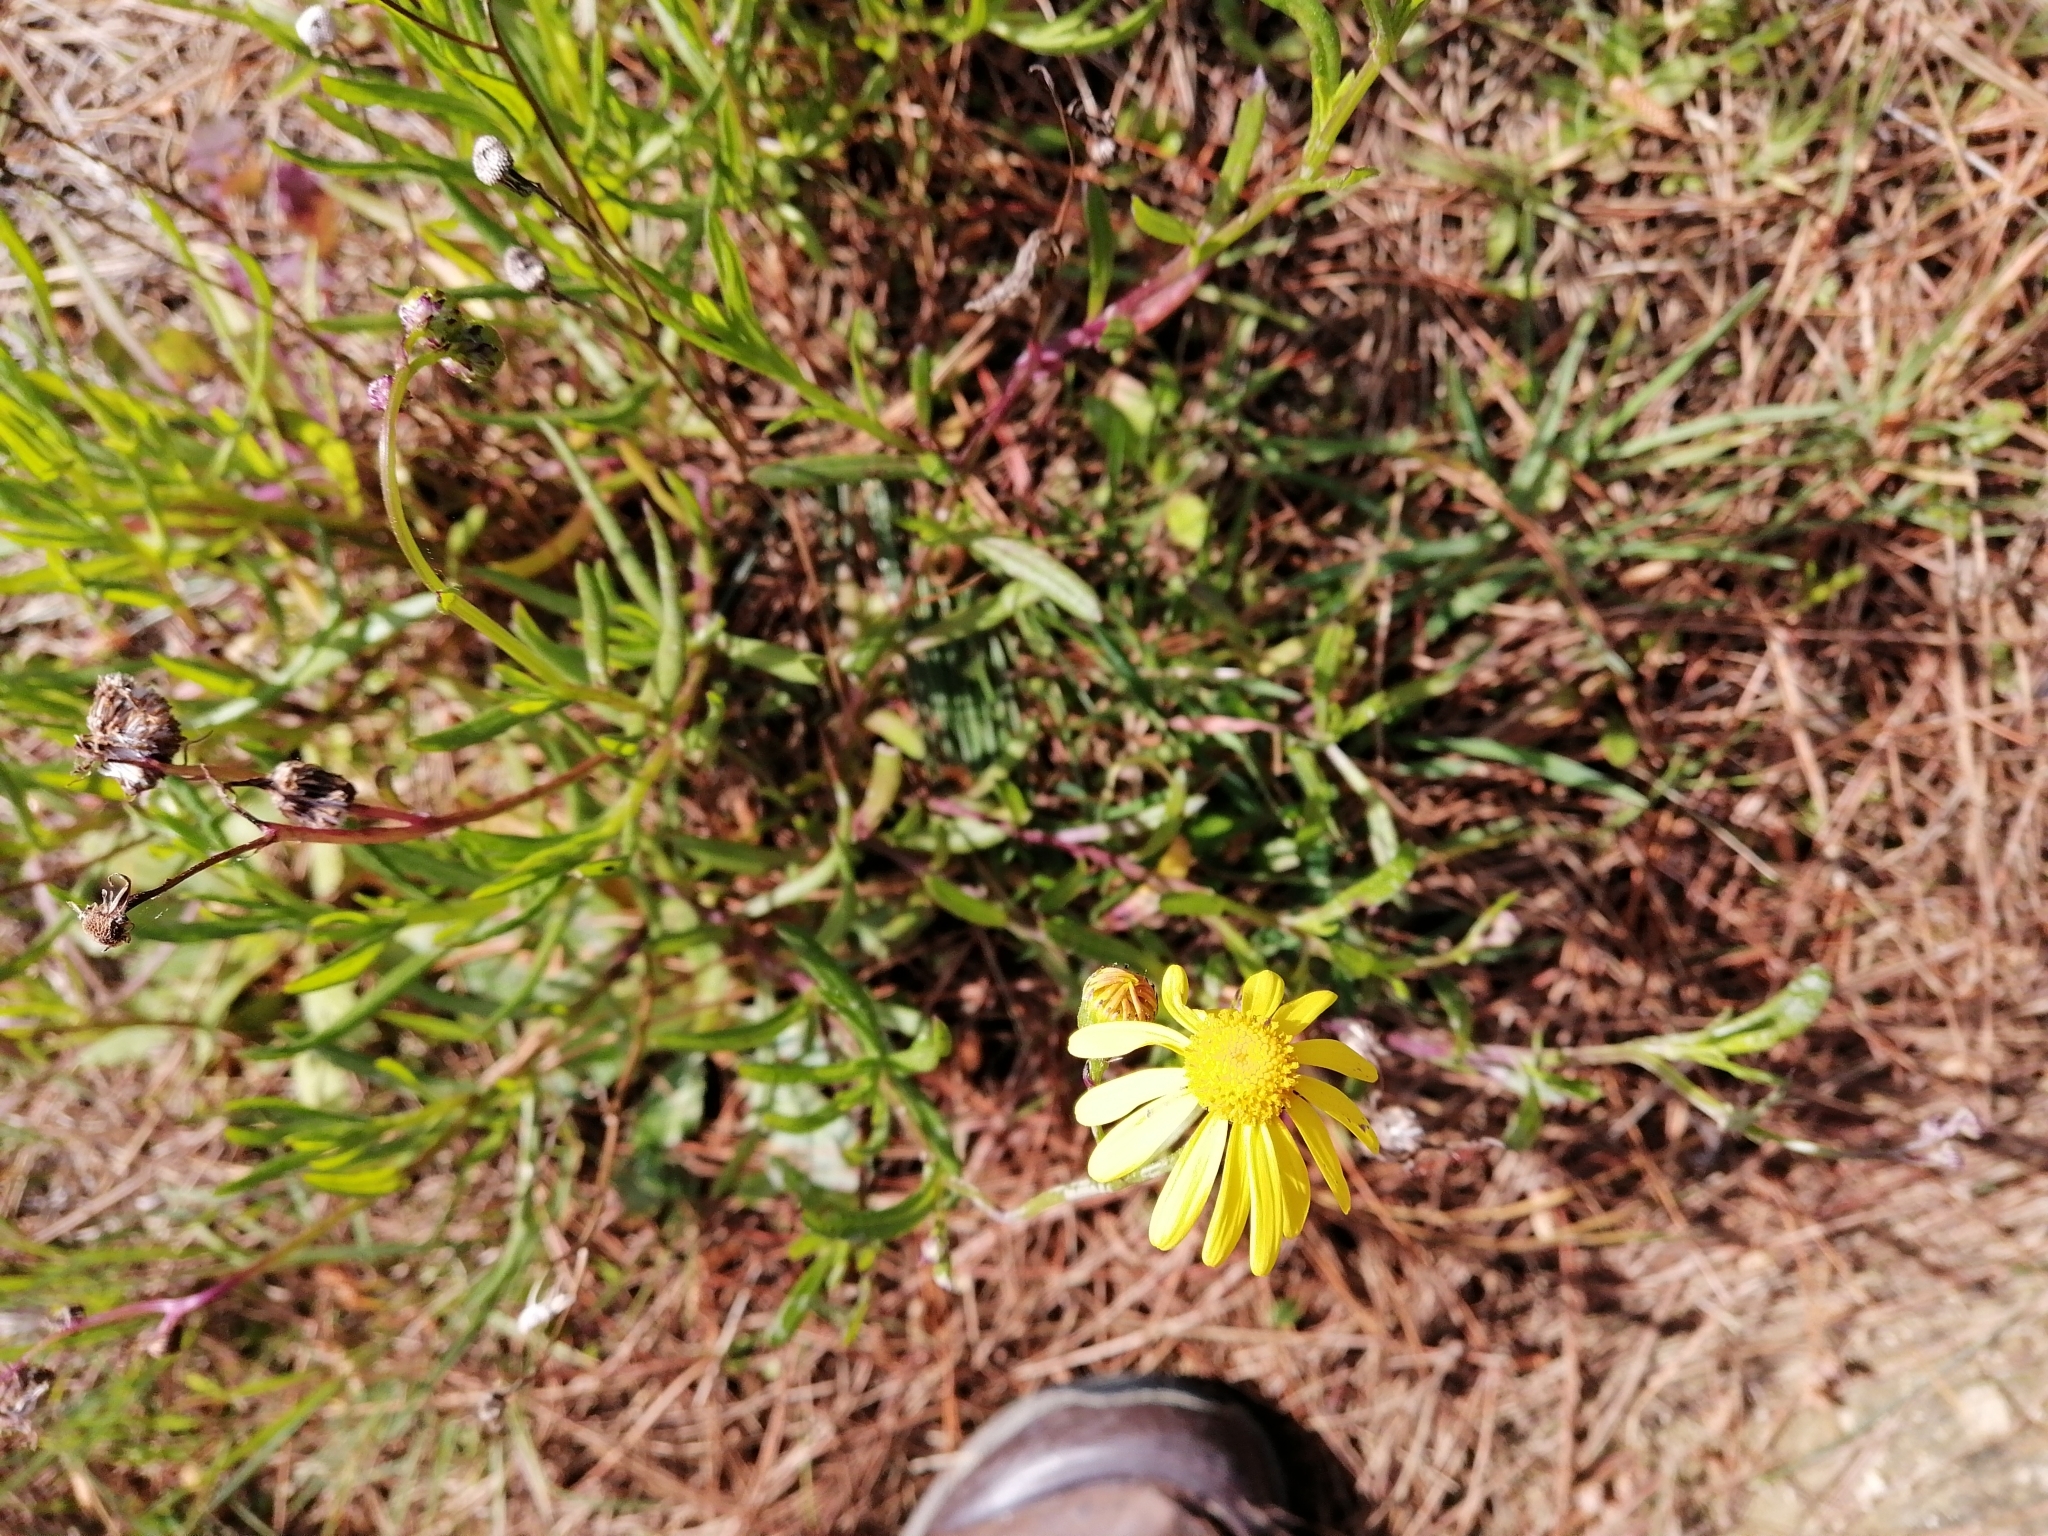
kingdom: Plantae
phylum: Tracheophyta
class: Magnoliopsida
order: Asterales
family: Asteraceae
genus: Senecio
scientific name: Senecio skirrhodon
